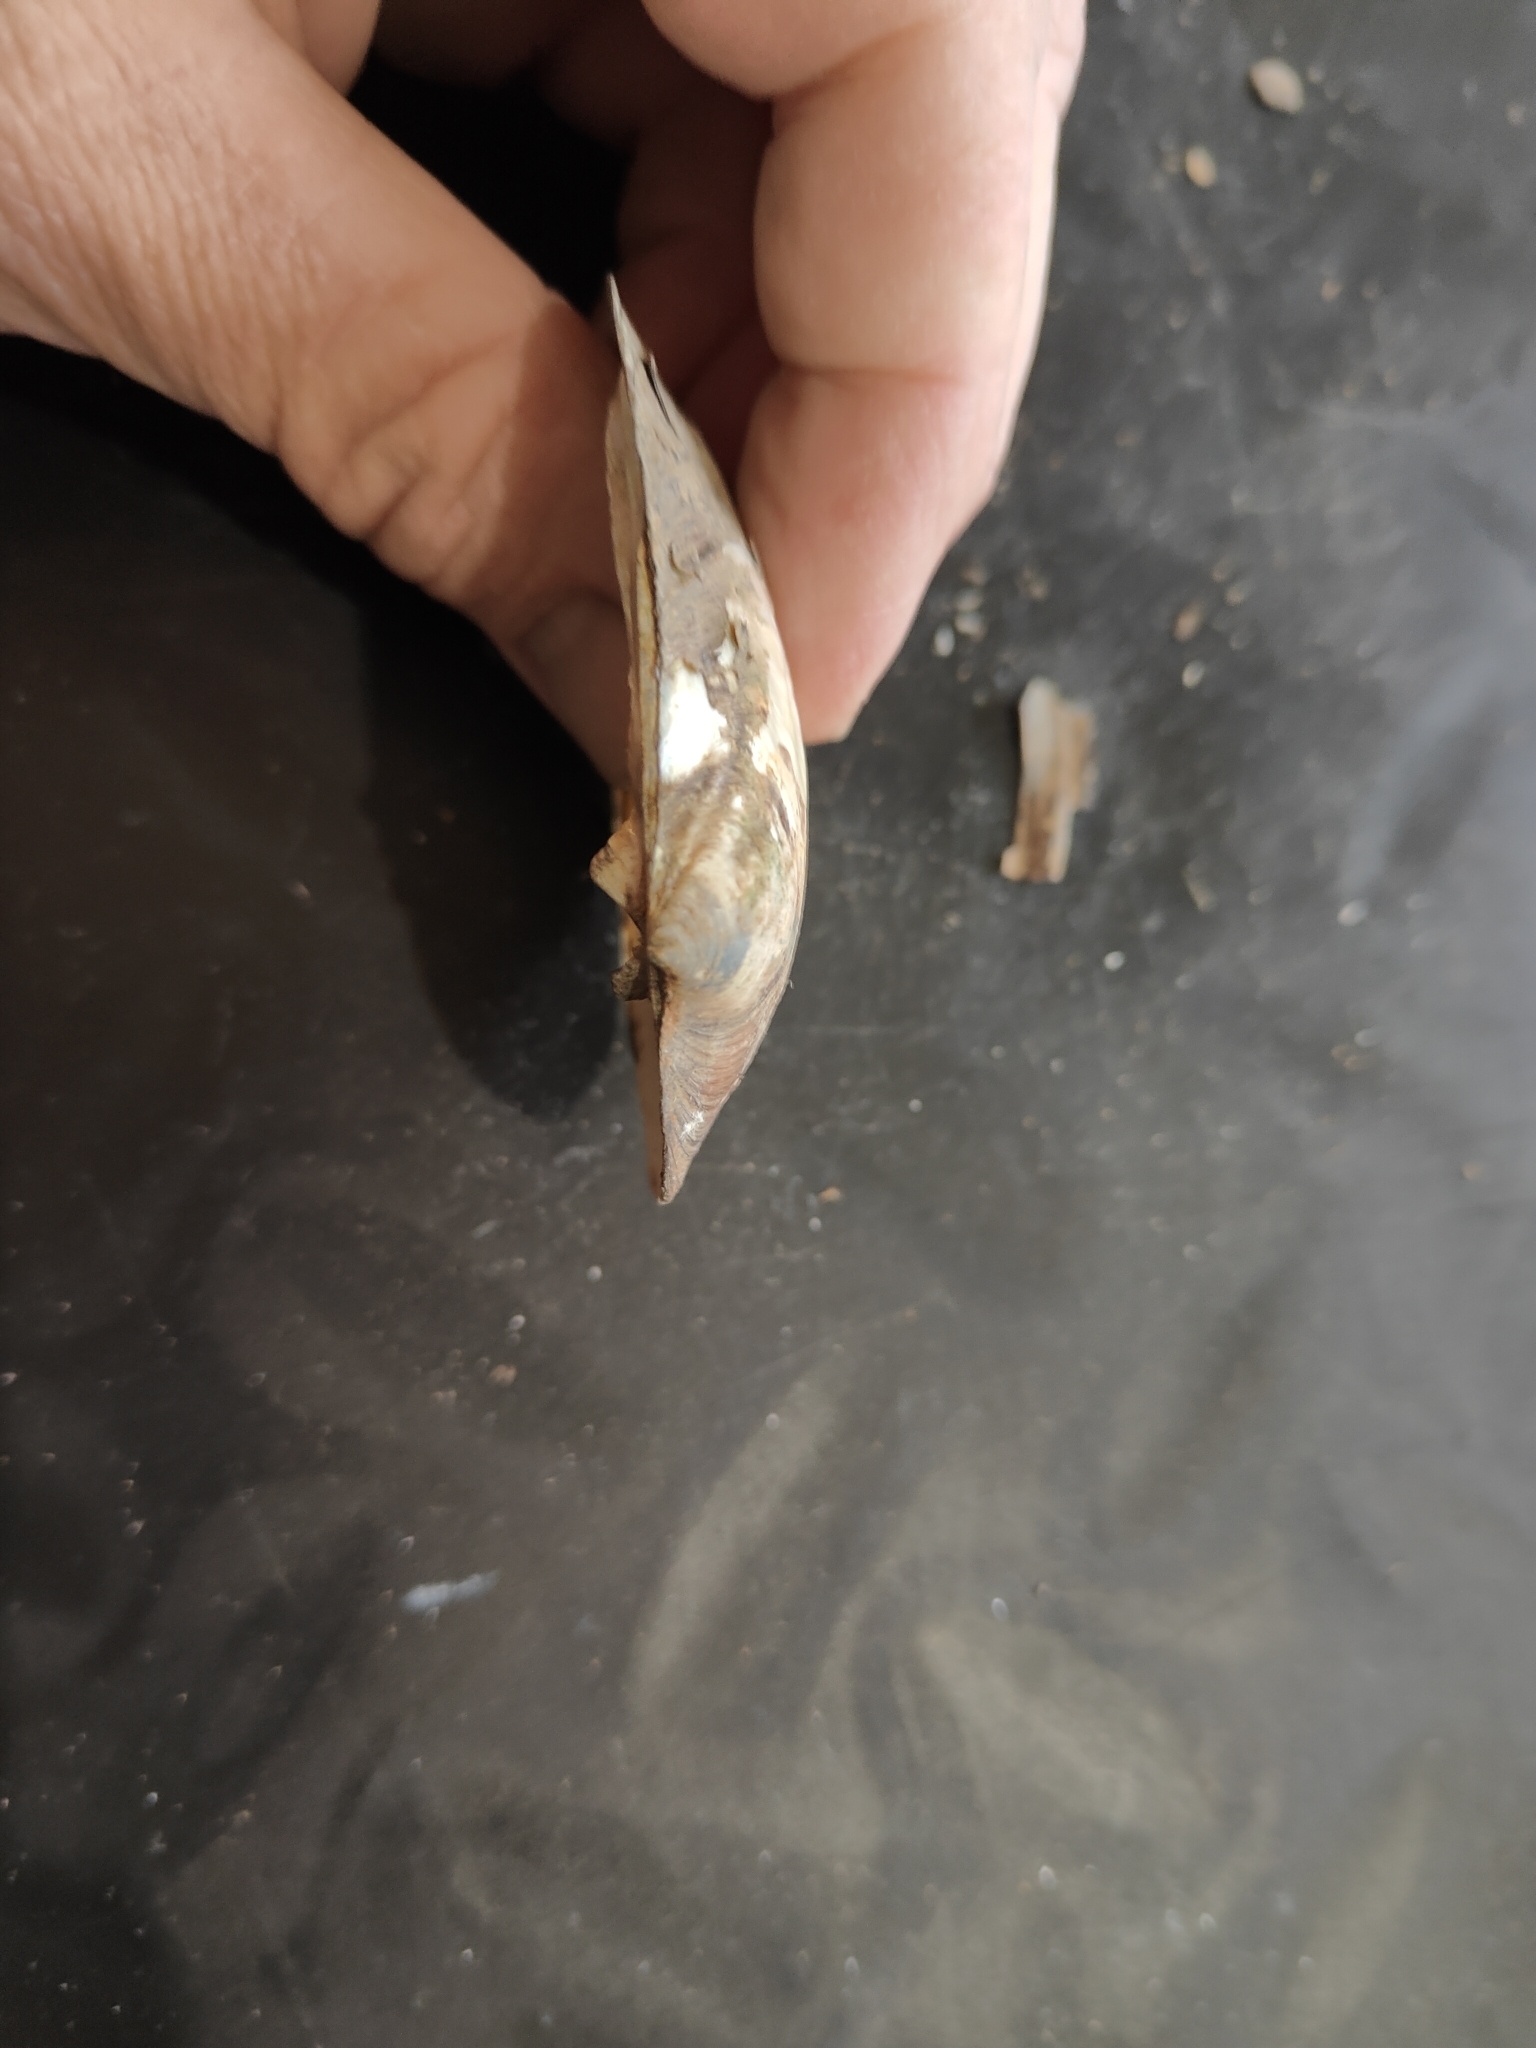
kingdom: Animalia
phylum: Mollusca
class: Bivalvia
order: Unionida
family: Unionidae
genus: Amblema
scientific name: Amblema plicata
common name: Threeridge
